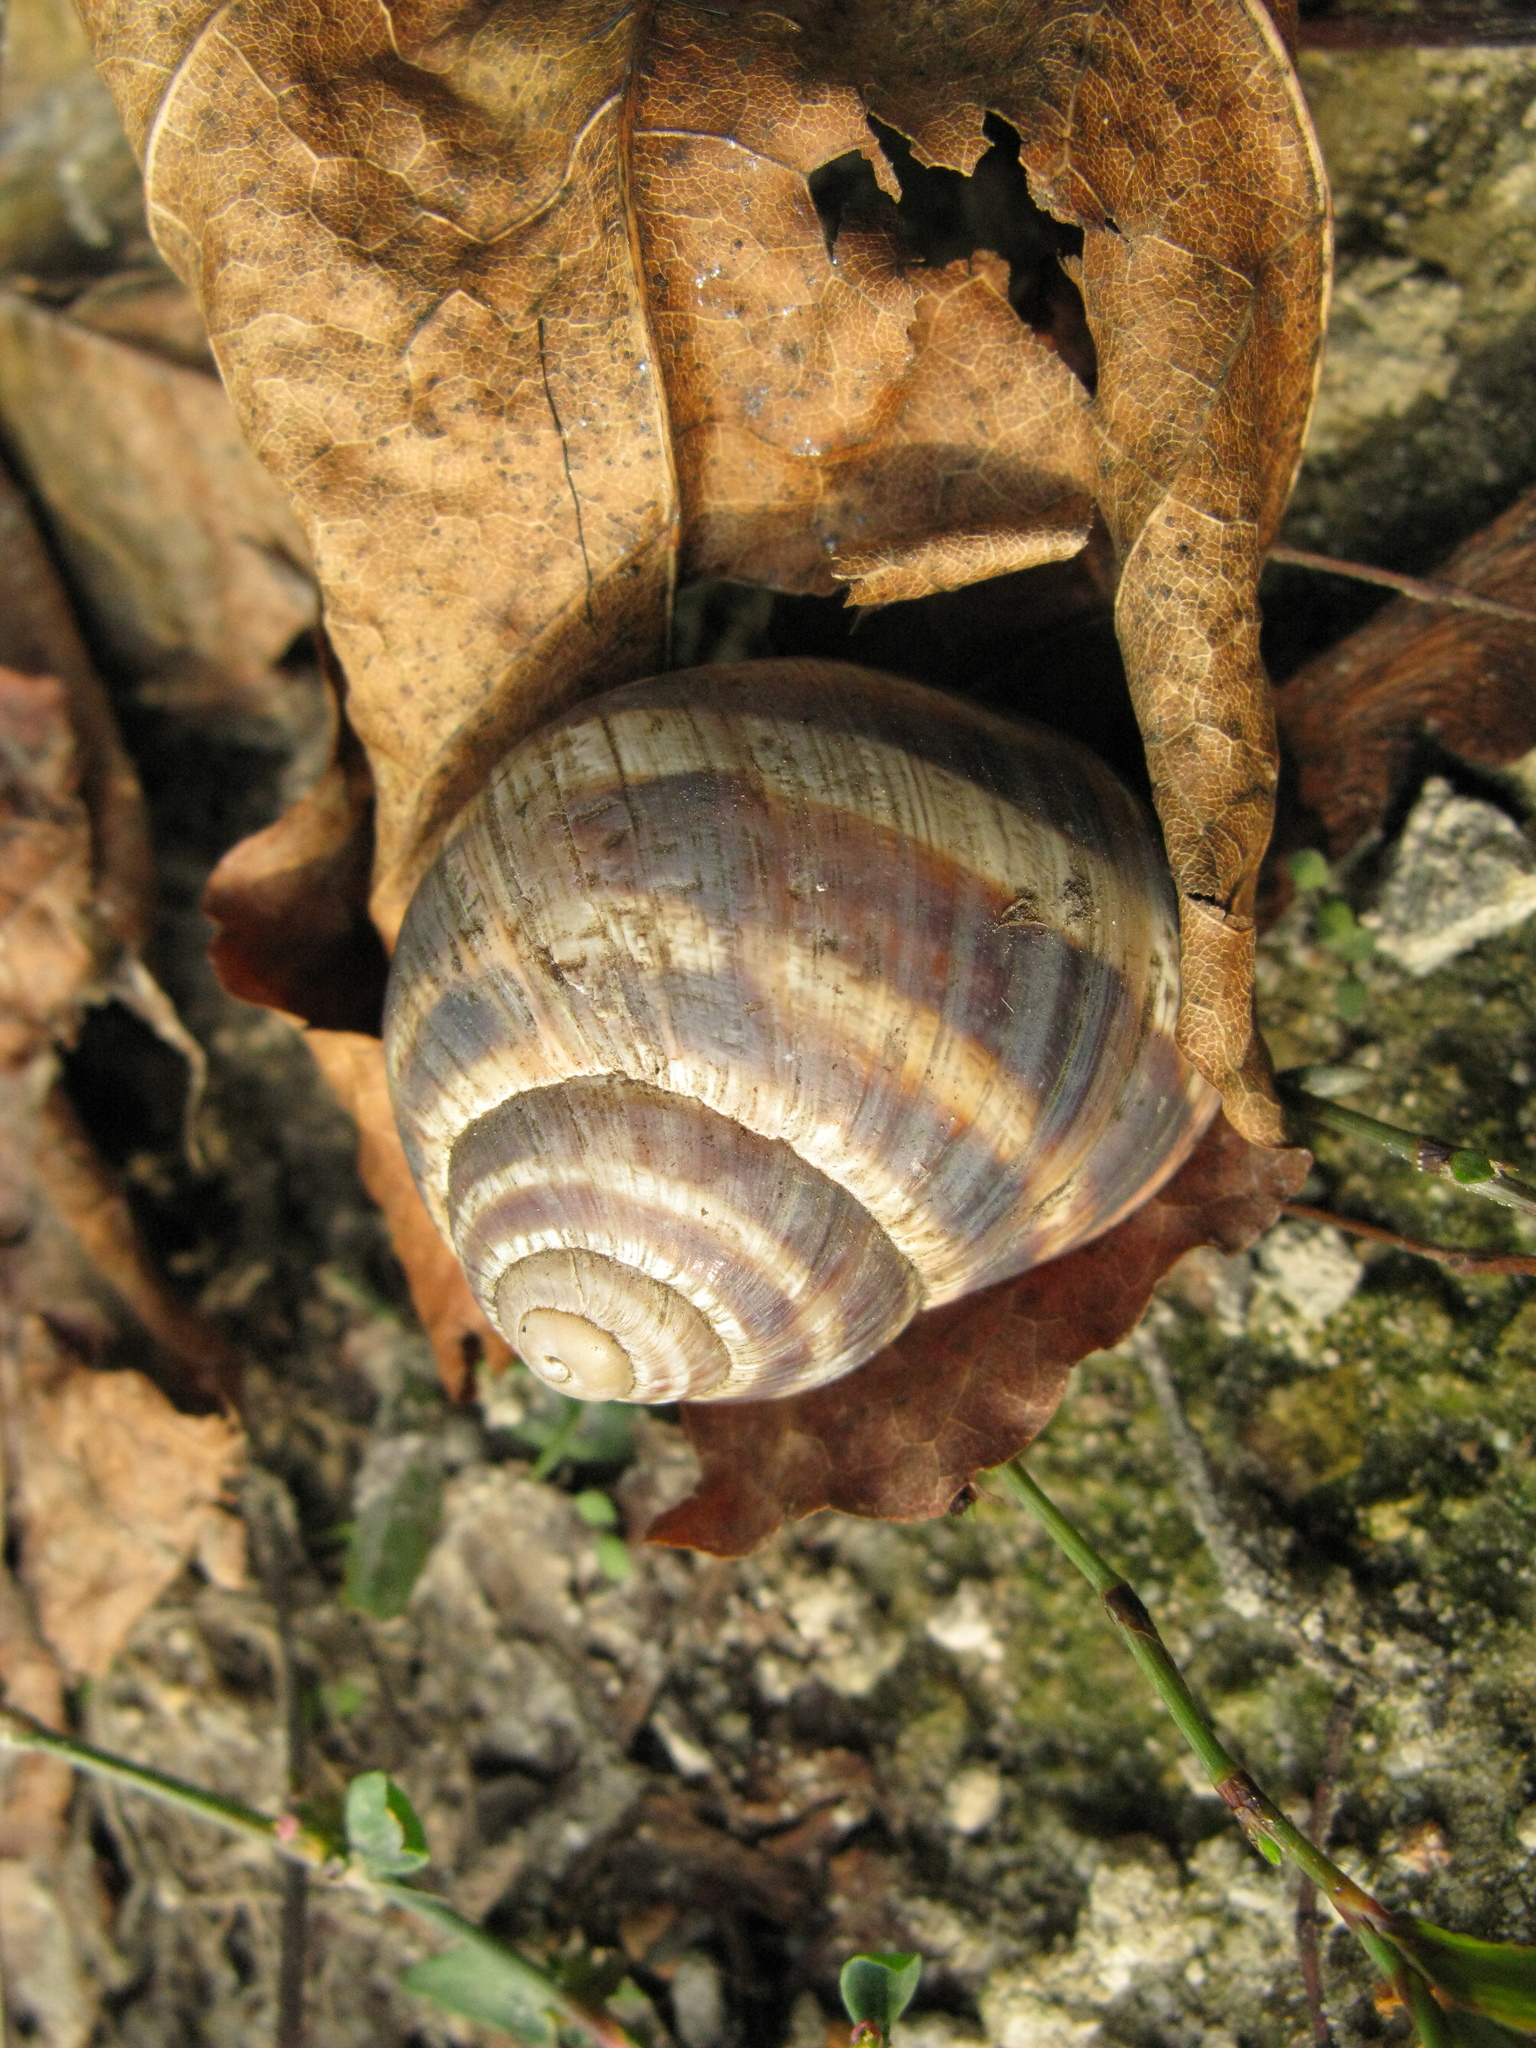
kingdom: Animalia
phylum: Mollusca
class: Gastropoda
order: Stylommatophora
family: Helicidae
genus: Helix
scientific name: Helix albescens
